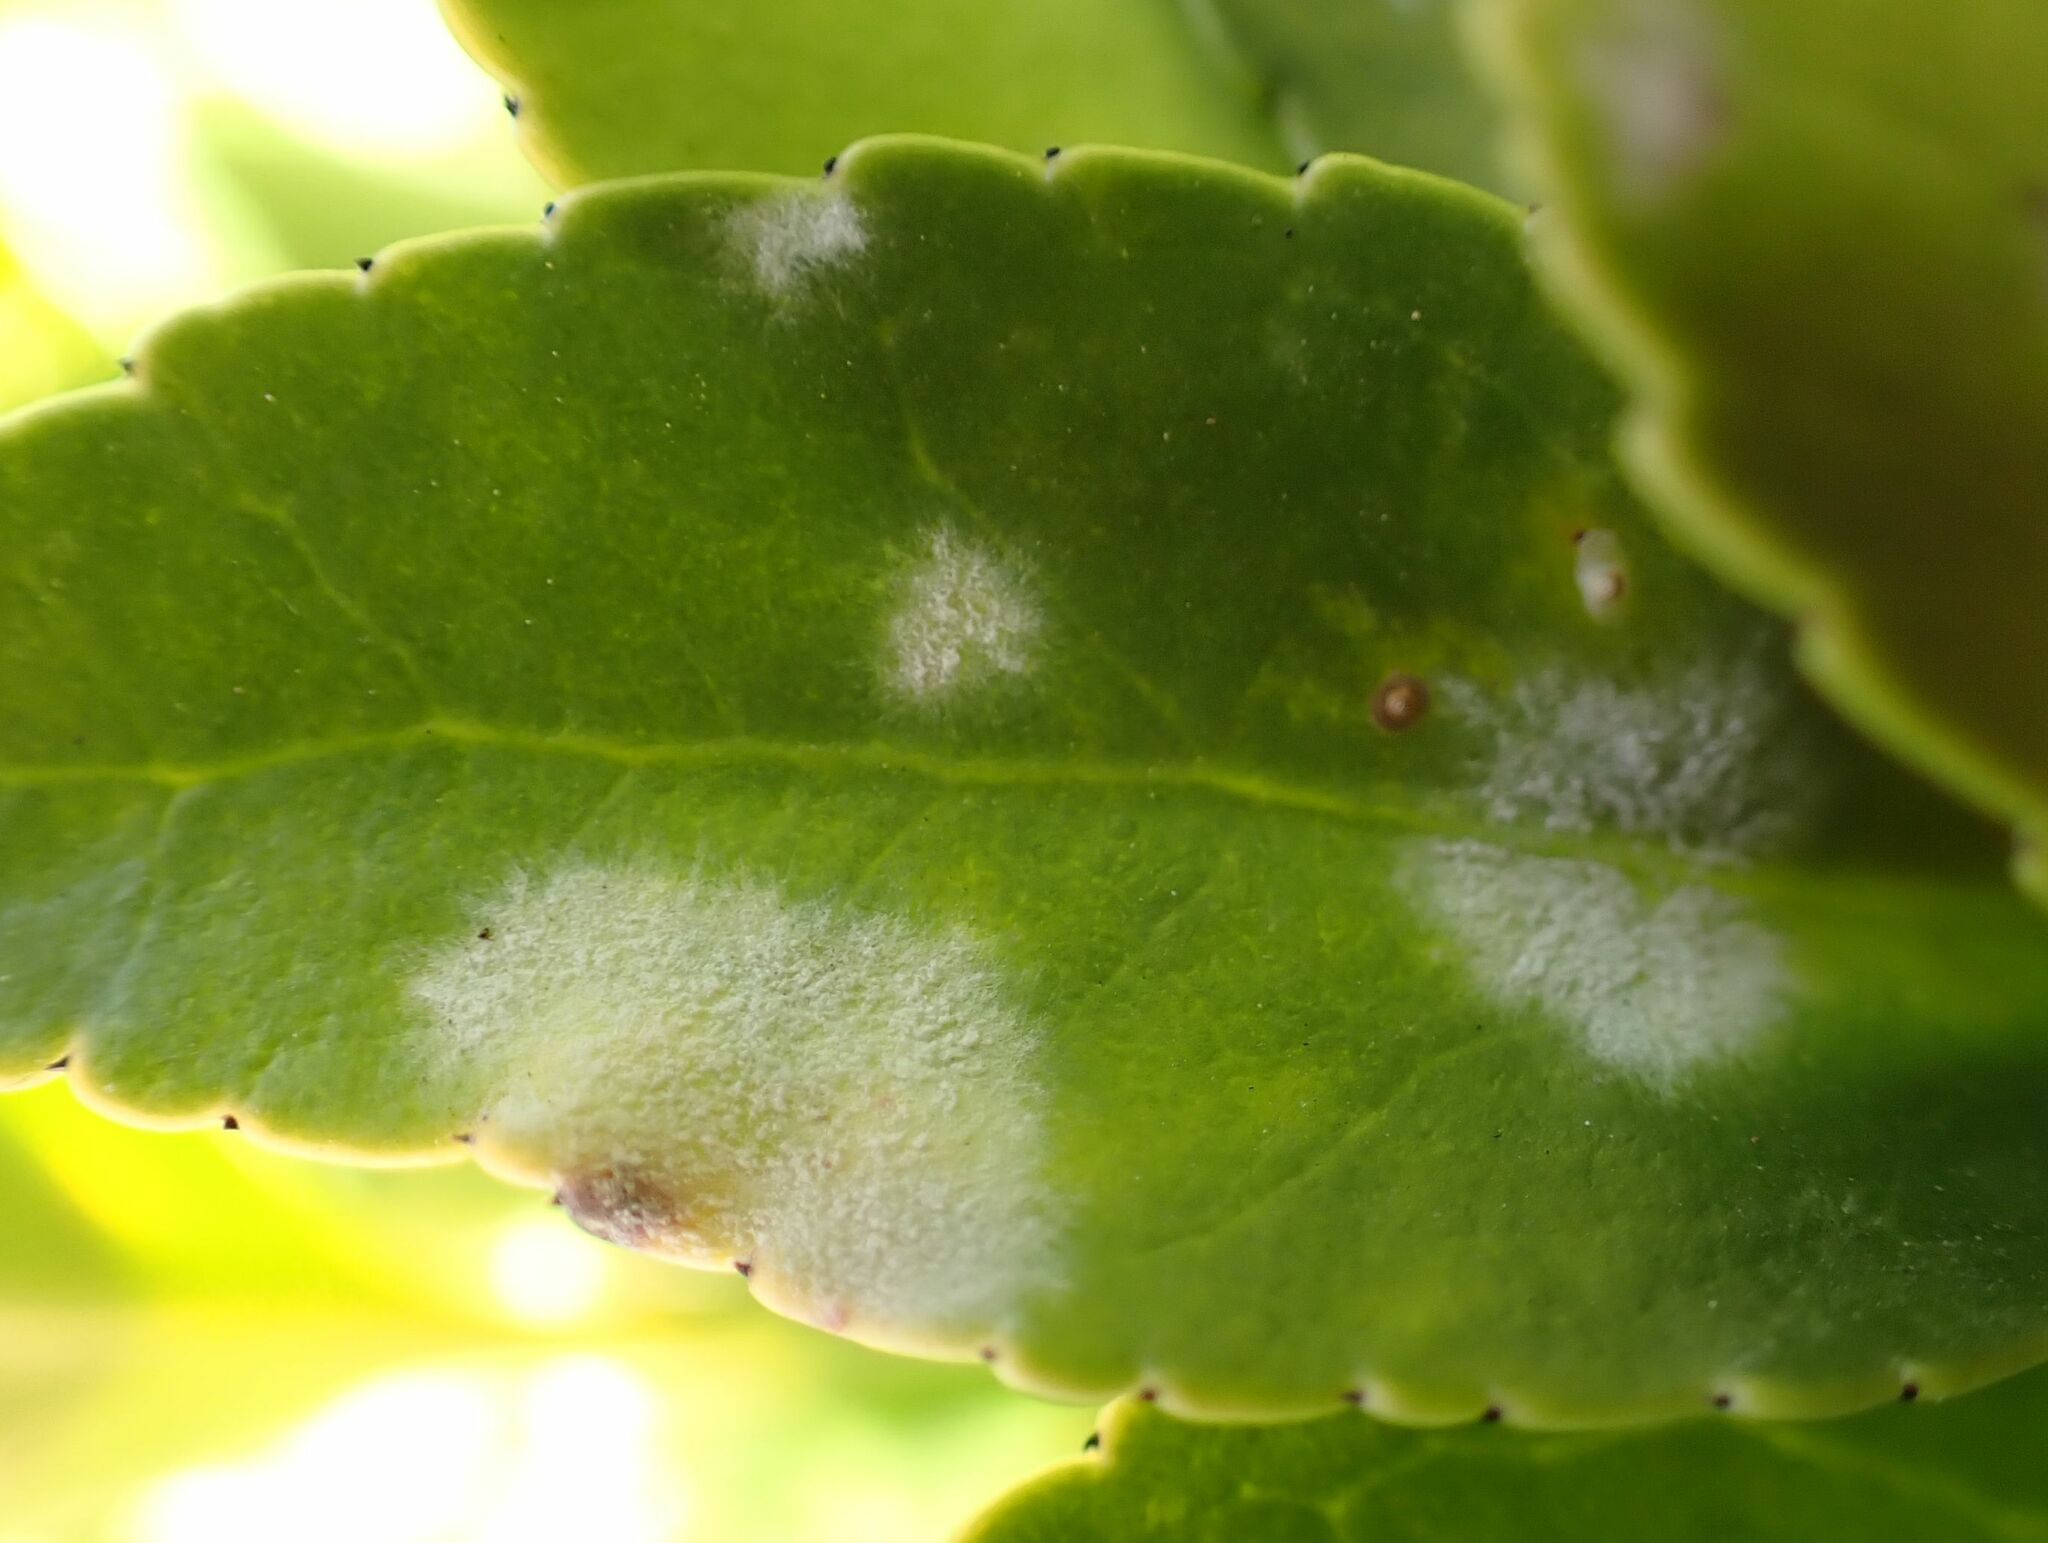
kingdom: Fungi
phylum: Ascomycota
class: Leotiomycetes
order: Helotiales
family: Erysiphaceae
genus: Erysiphe
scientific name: Erysiphe euonymicola
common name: Spindletree mildew
